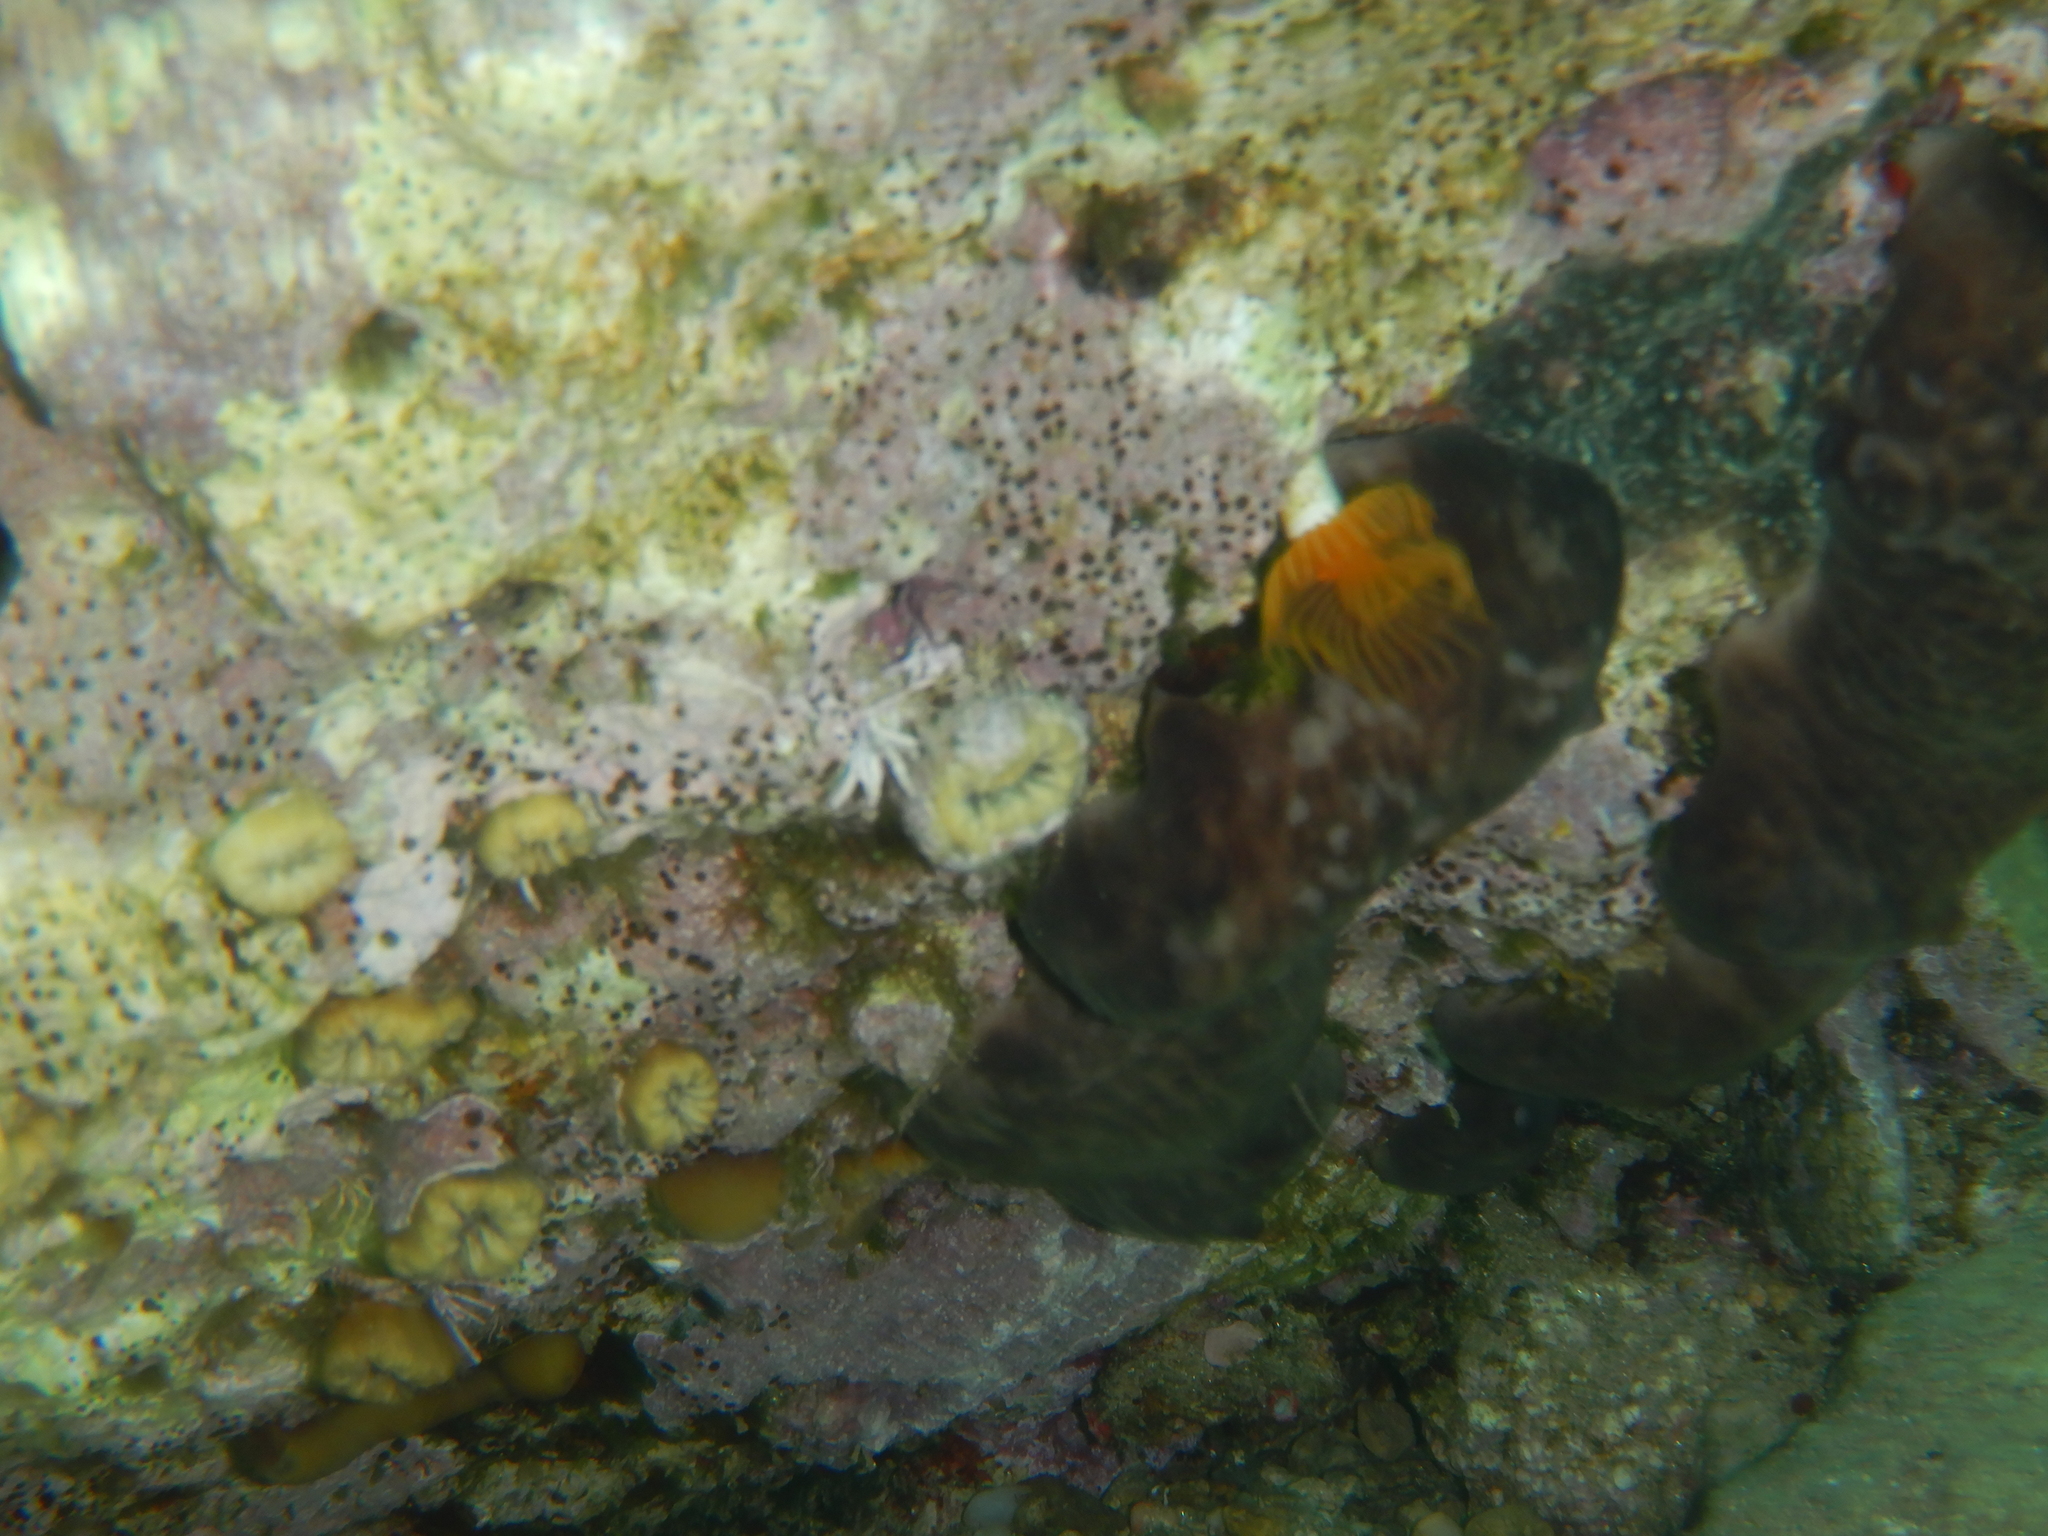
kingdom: Animalia
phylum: Annelida
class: Polychaeta
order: Sabellida
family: Serpulidae
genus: Protula
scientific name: Protula tubularia
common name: Red-spotted horseshoe
